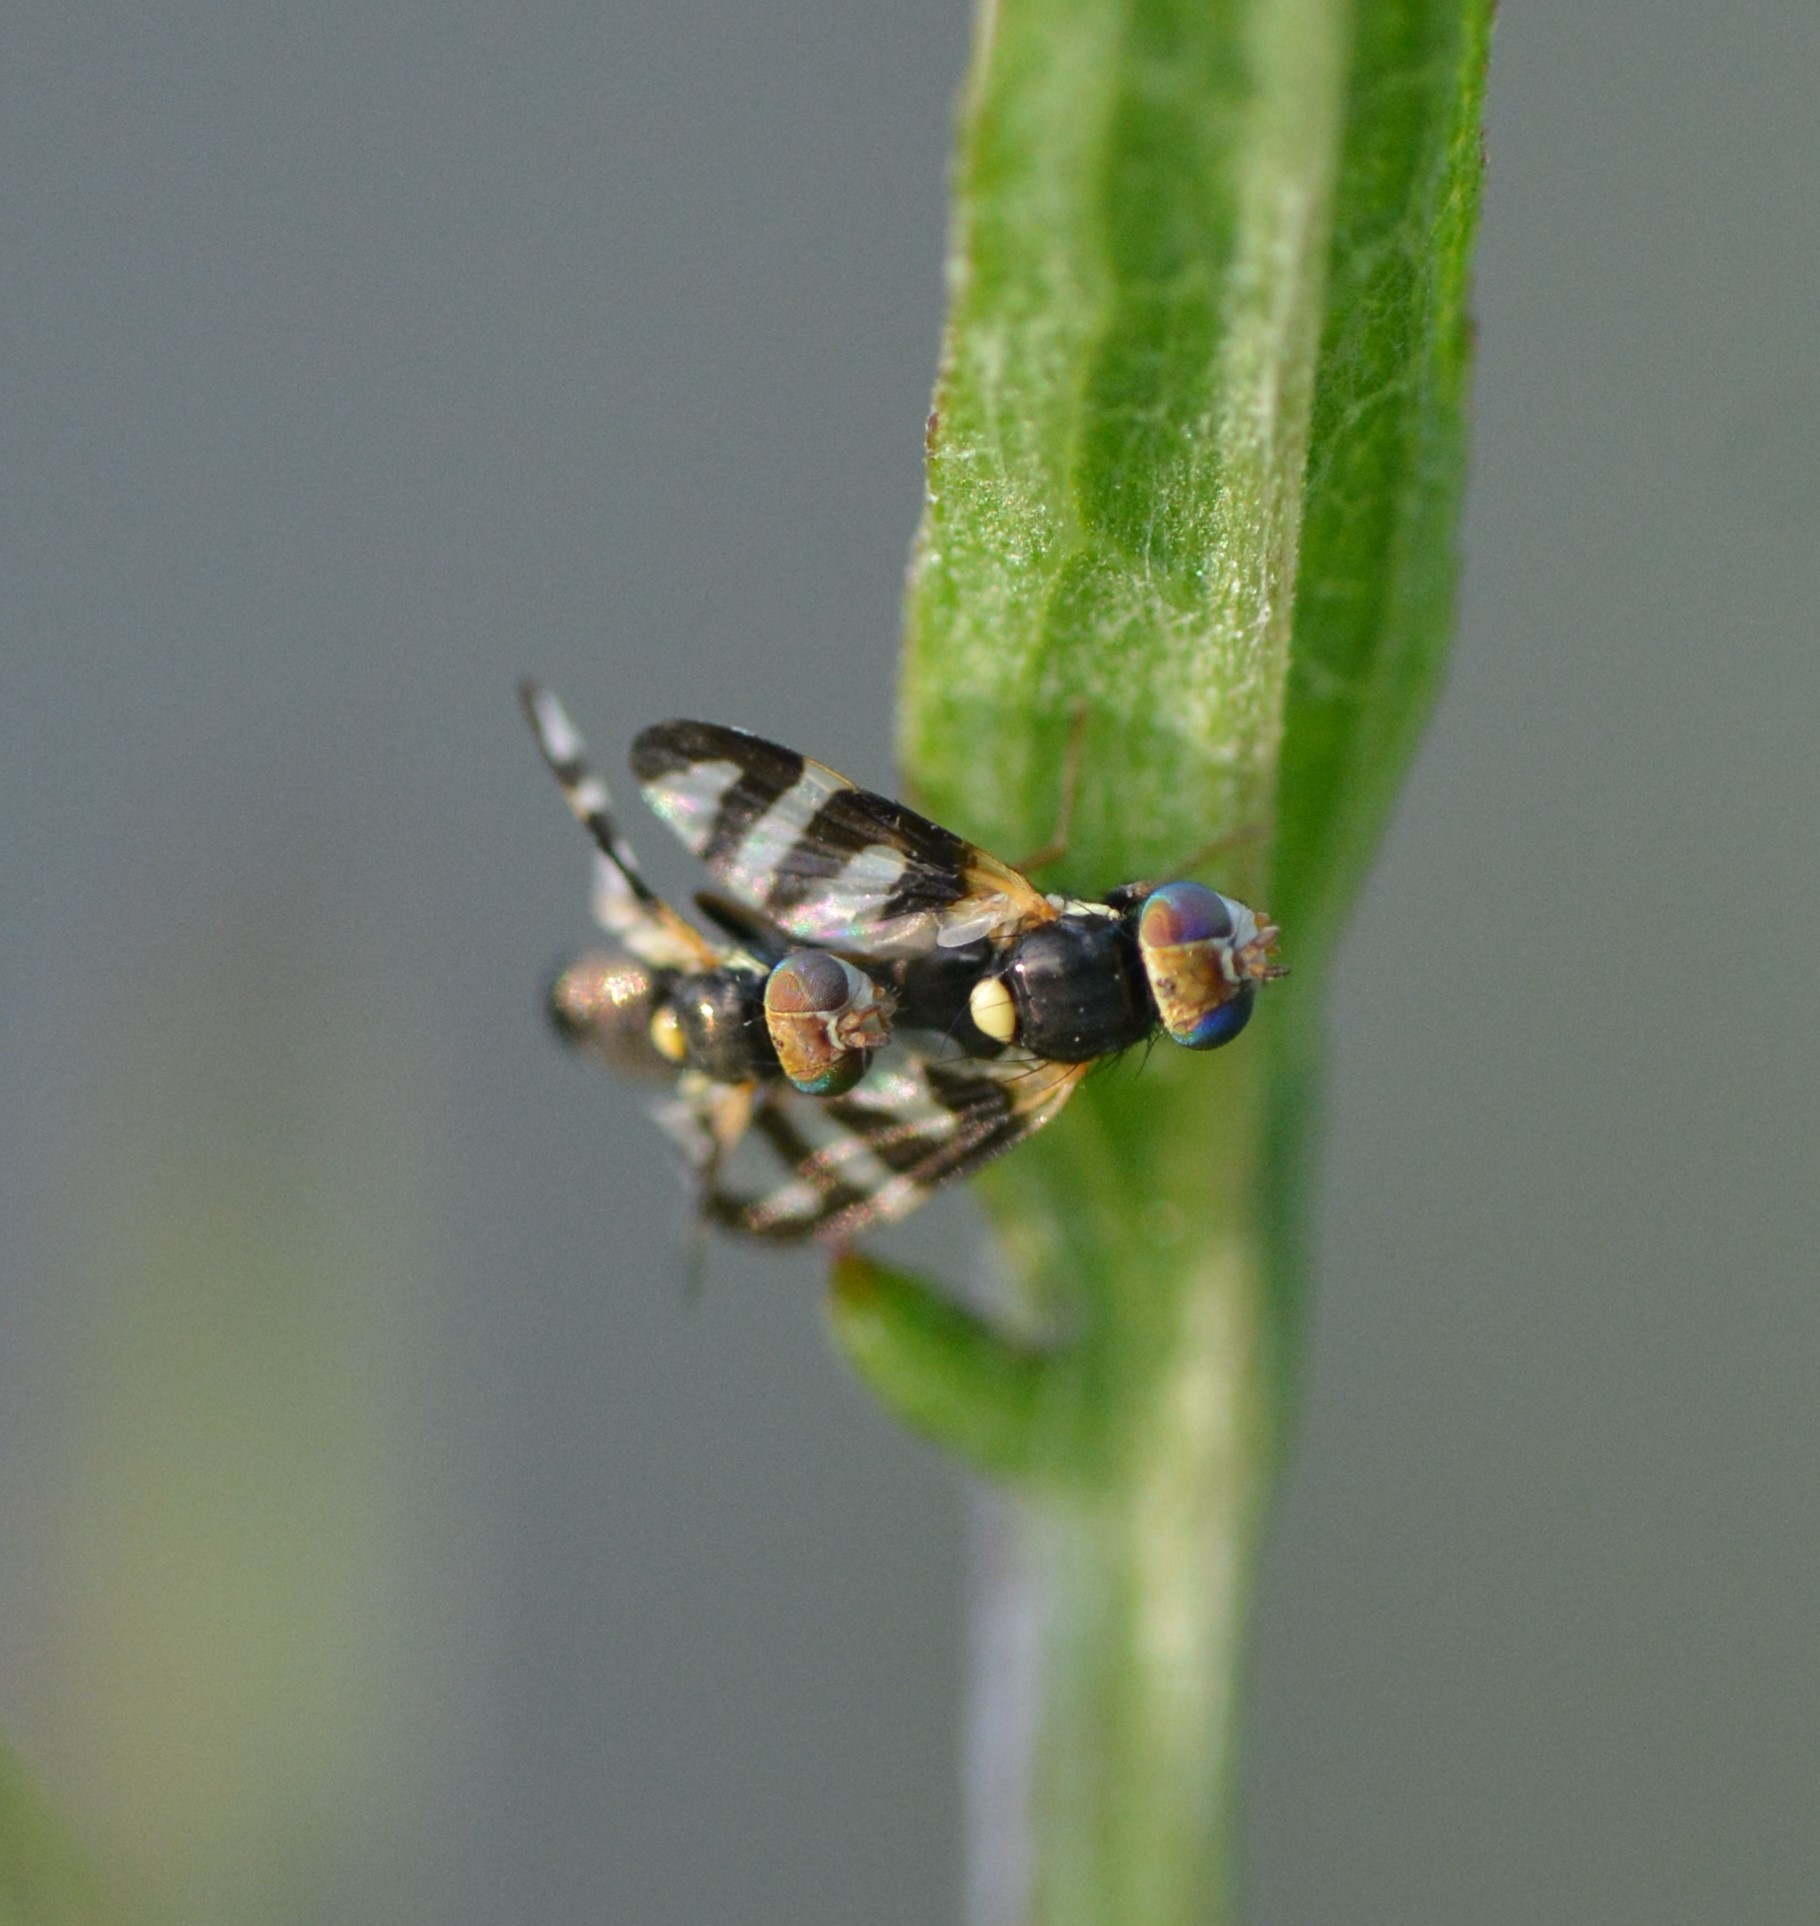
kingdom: Animalia
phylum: Arthropoda
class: Insecta
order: Diptera
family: Tephritidae
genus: Urophora
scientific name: Urophora quadrifasciata
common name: Knapweed seedhead fly
